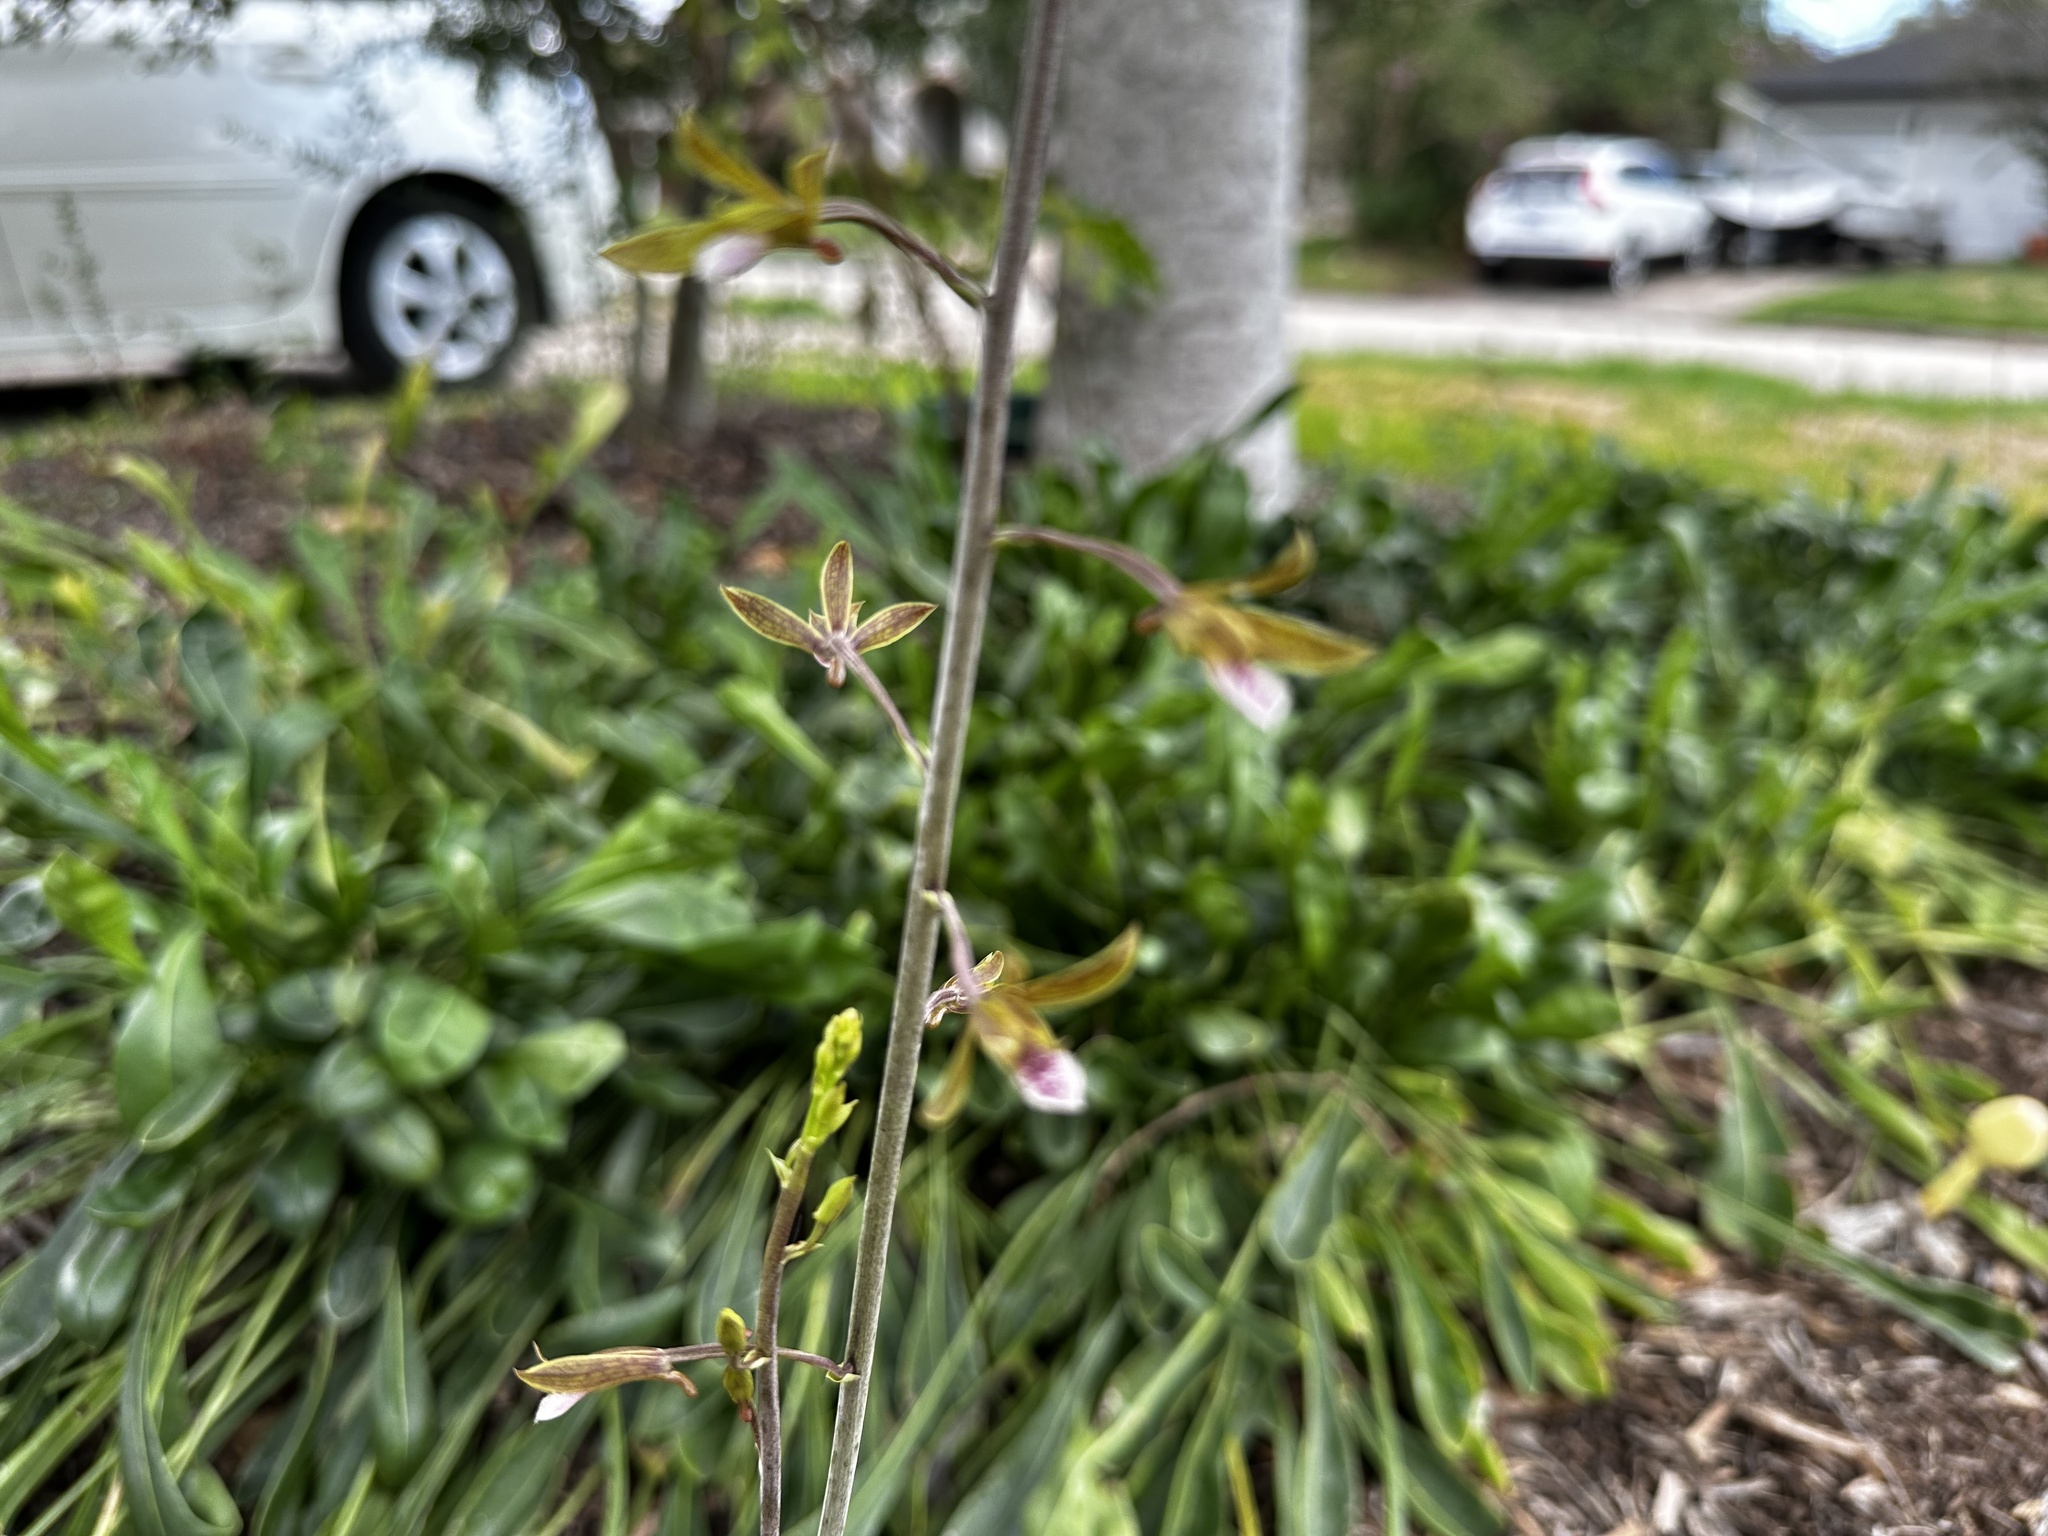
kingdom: Plantae
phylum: Tracheophyta
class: Liliopsida
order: Asparagales
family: Orchidaceae
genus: Eulophia
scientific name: Eulophia graminea
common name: Orchid
